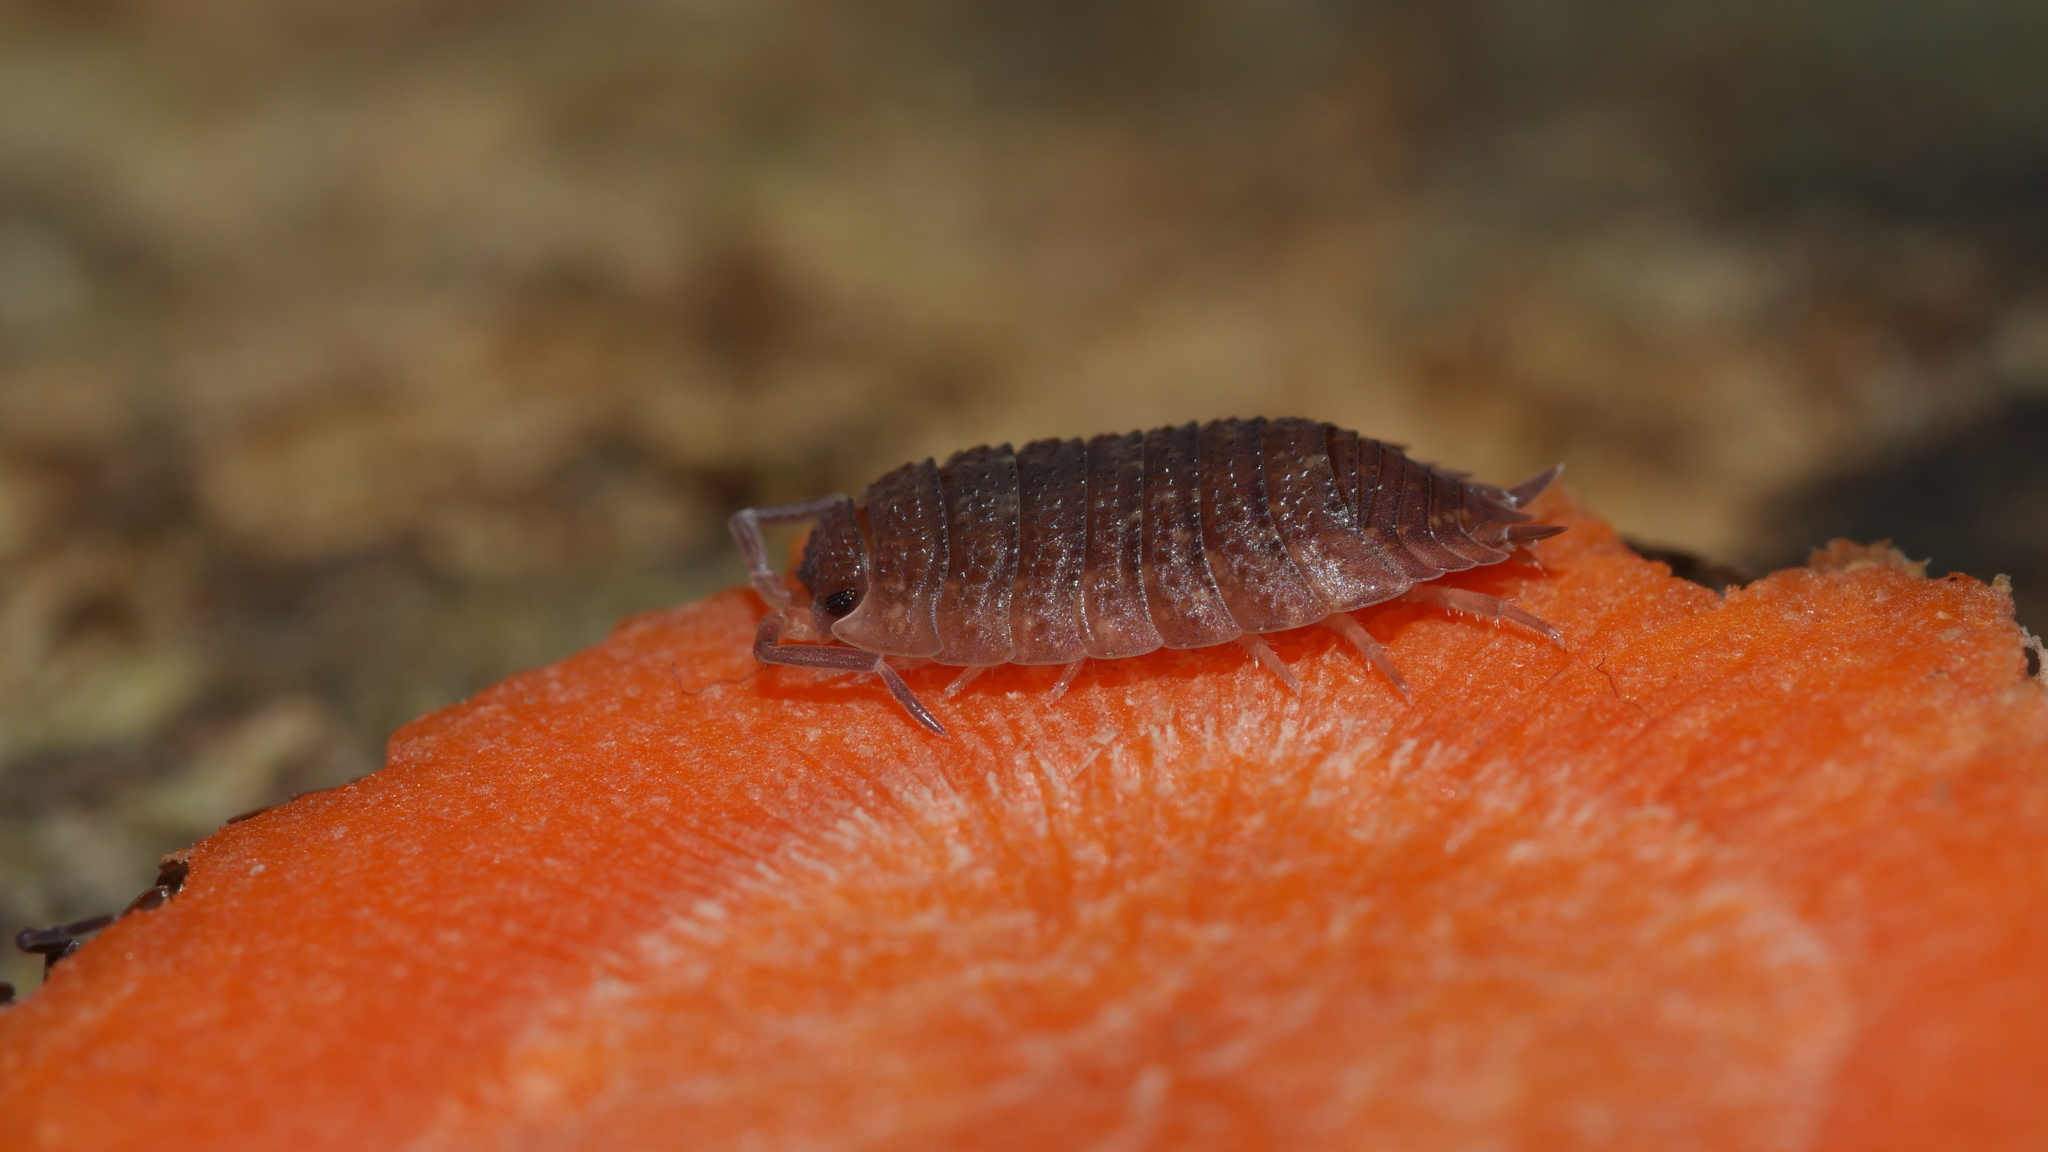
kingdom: Animalia
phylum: Arthropoda
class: Malacostraca
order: Isopoda
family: Porcellionidae
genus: Porcellio
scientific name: Porcellio scaber
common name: Common rough woodlouse
